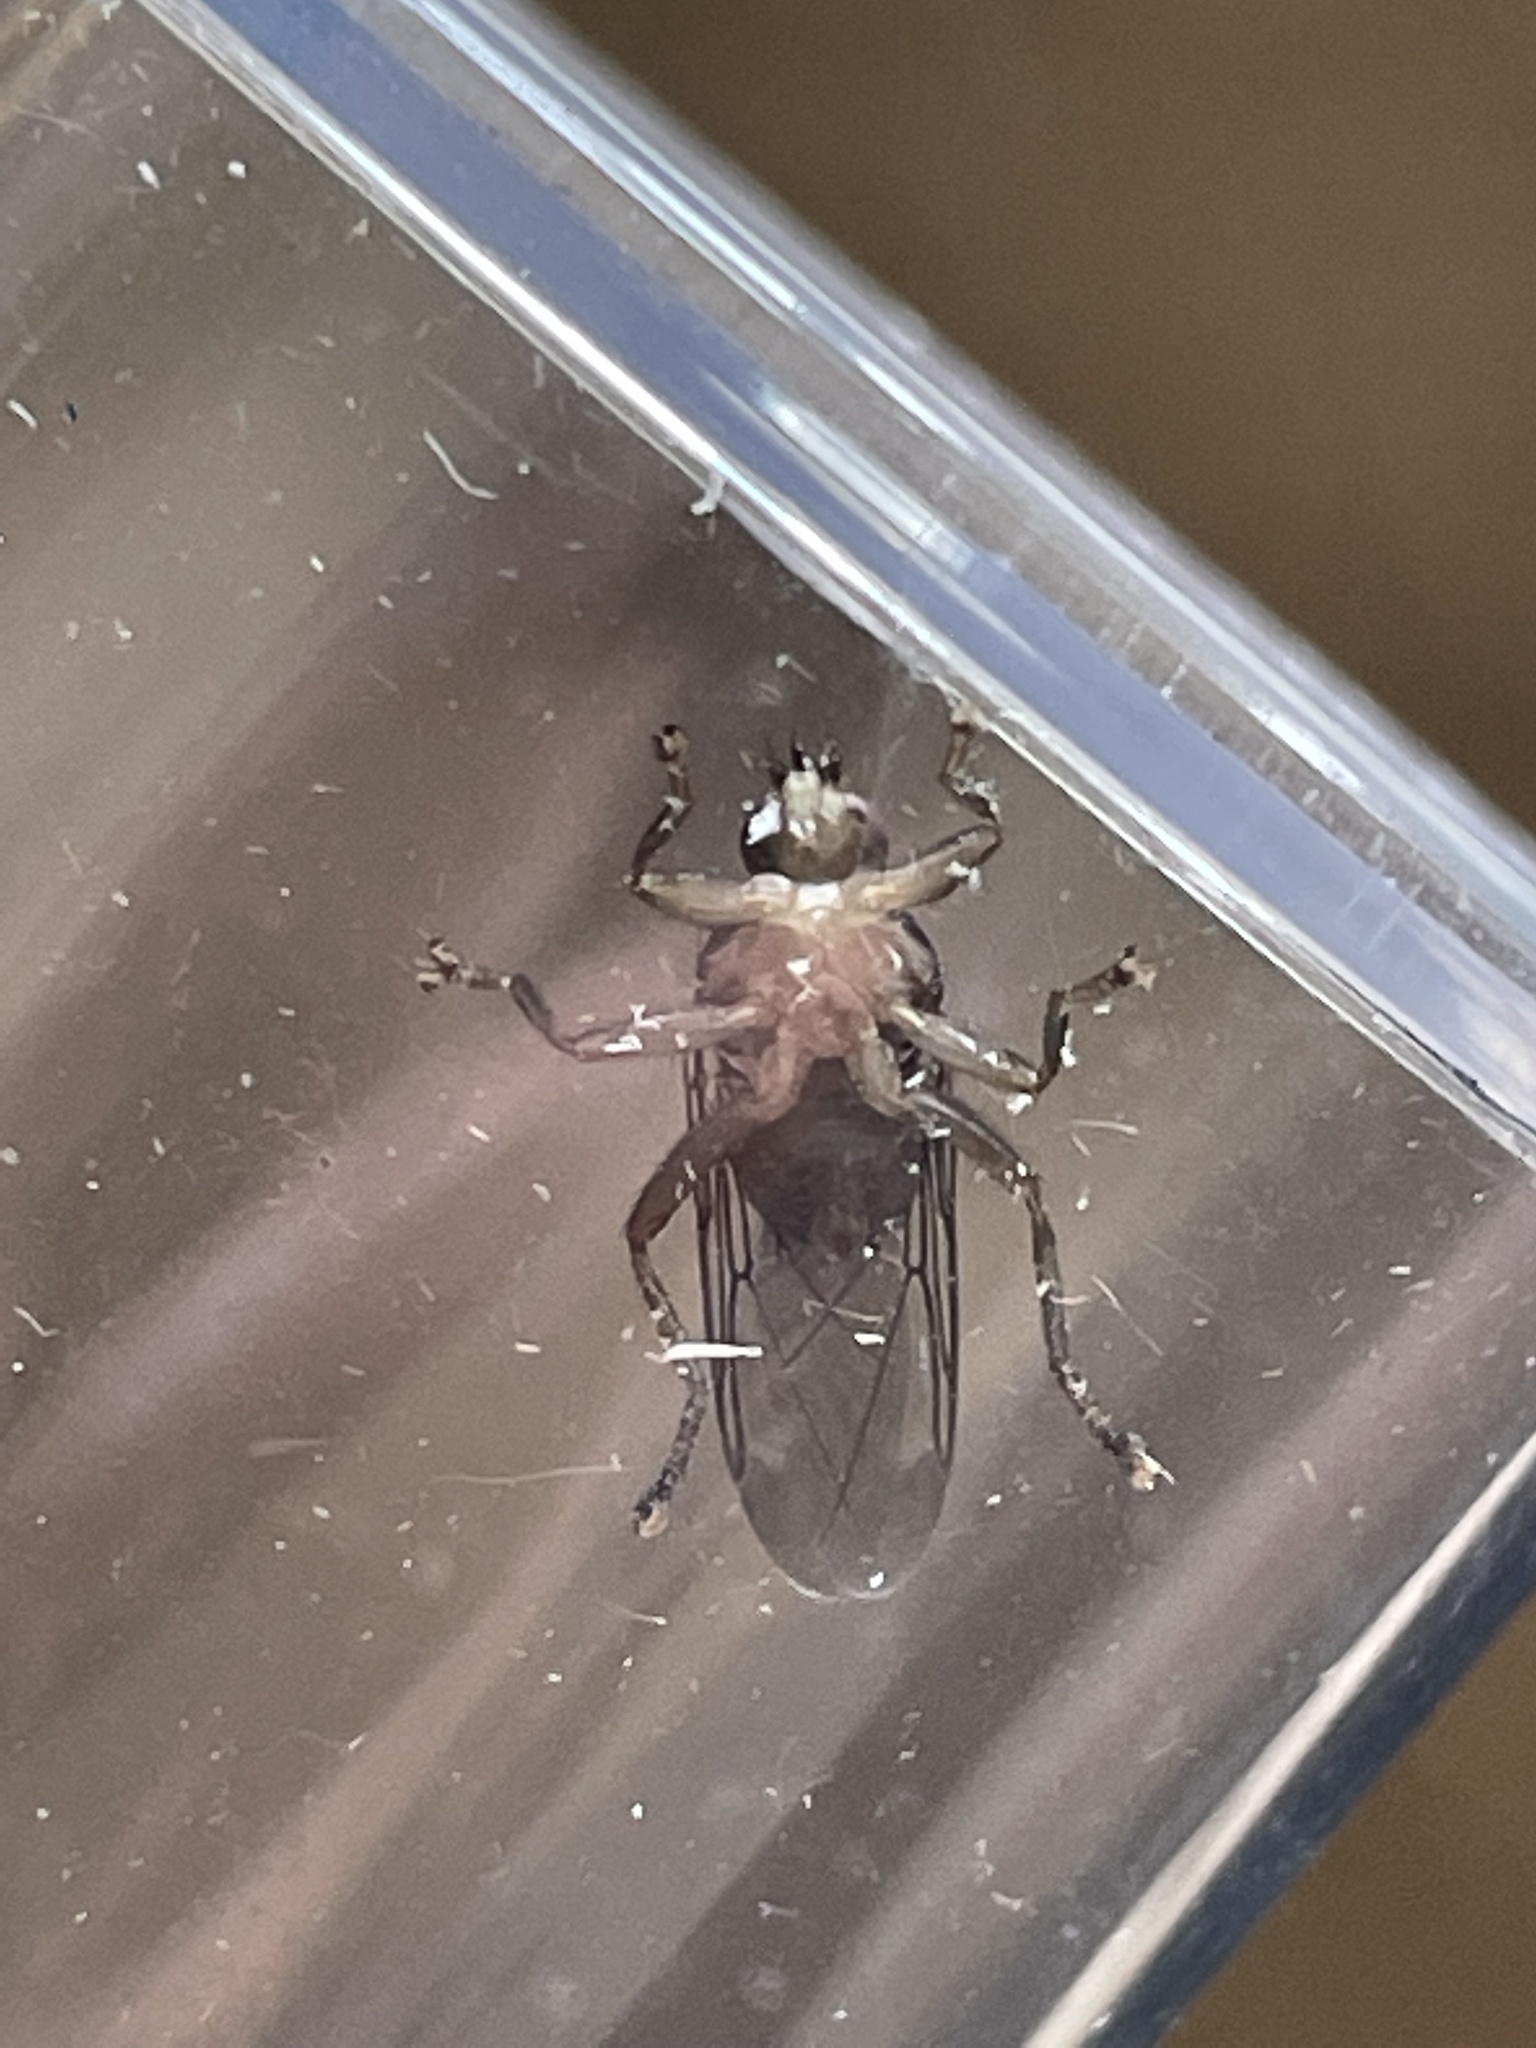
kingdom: Animalia
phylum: Arthropoda
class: Insecta
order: Diptera
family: Hippoboscidae
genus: Ornithomya
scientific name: Ornithomya avicularia
